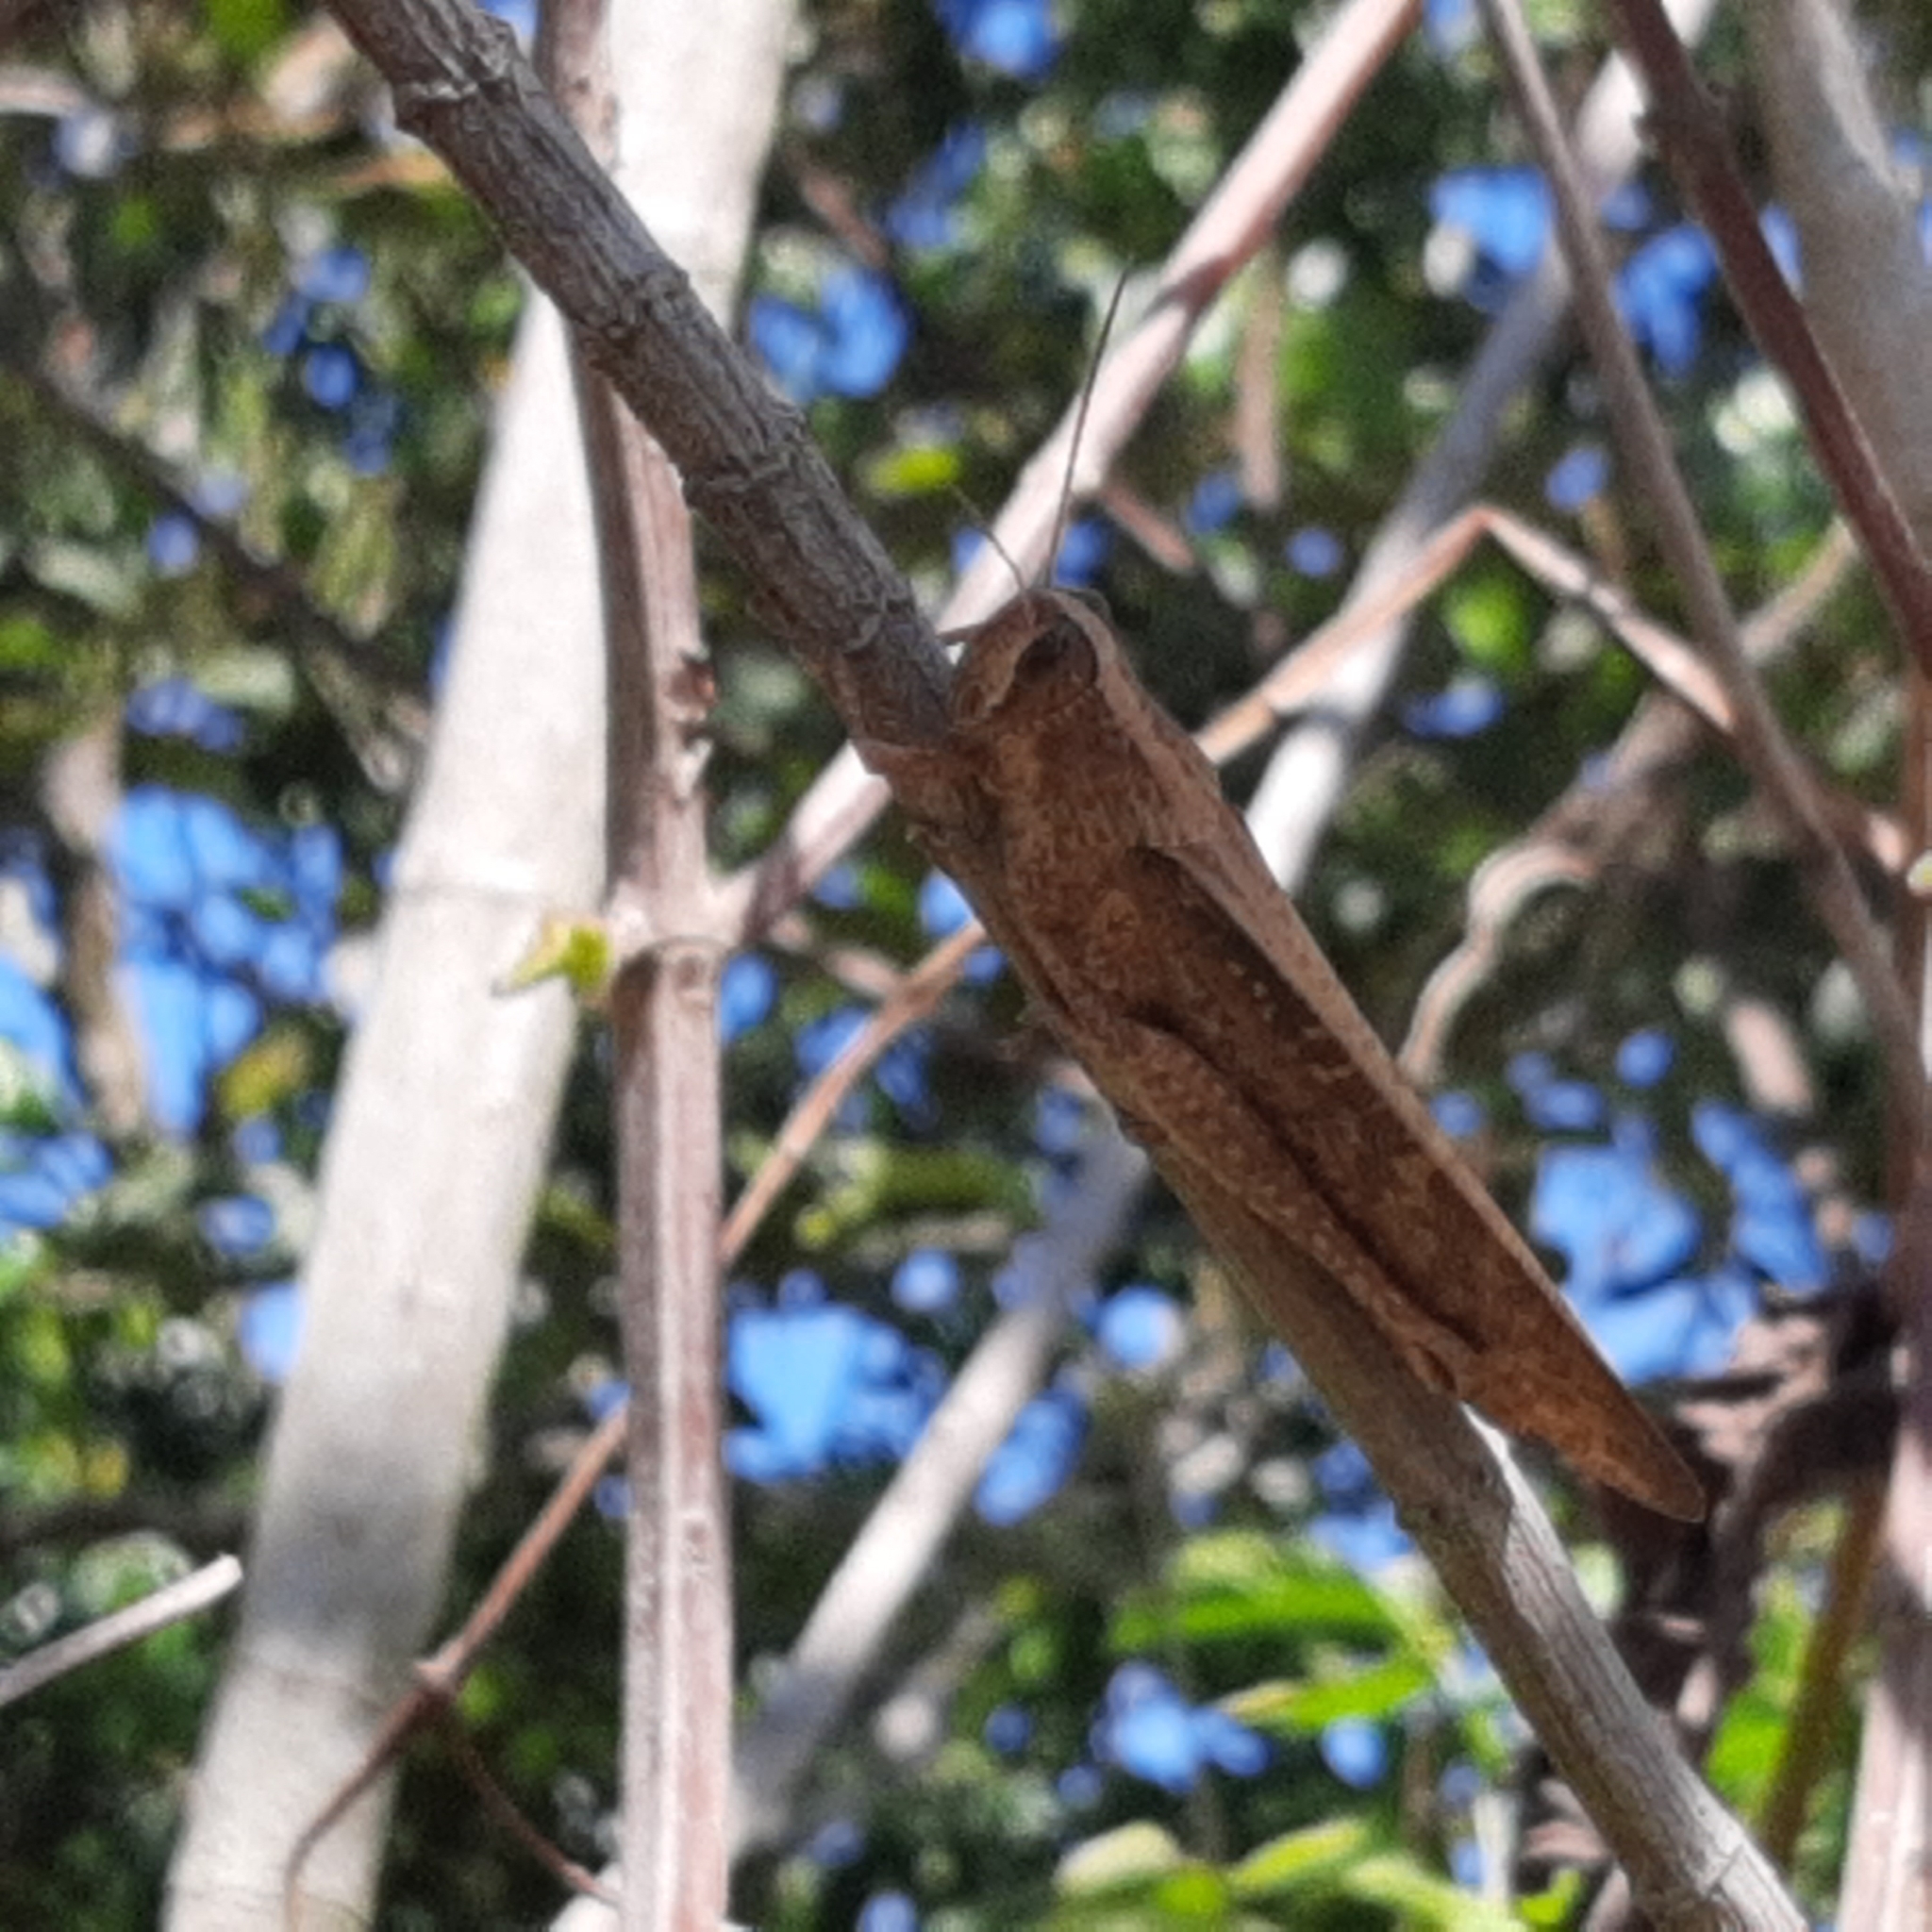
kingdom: Animalia
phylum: Arthropoda
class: Insecta
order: Orthoptera
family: Acrididae
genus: Schistocerca
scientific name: Schistocerca nitens
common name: Vagrant grasshopper
